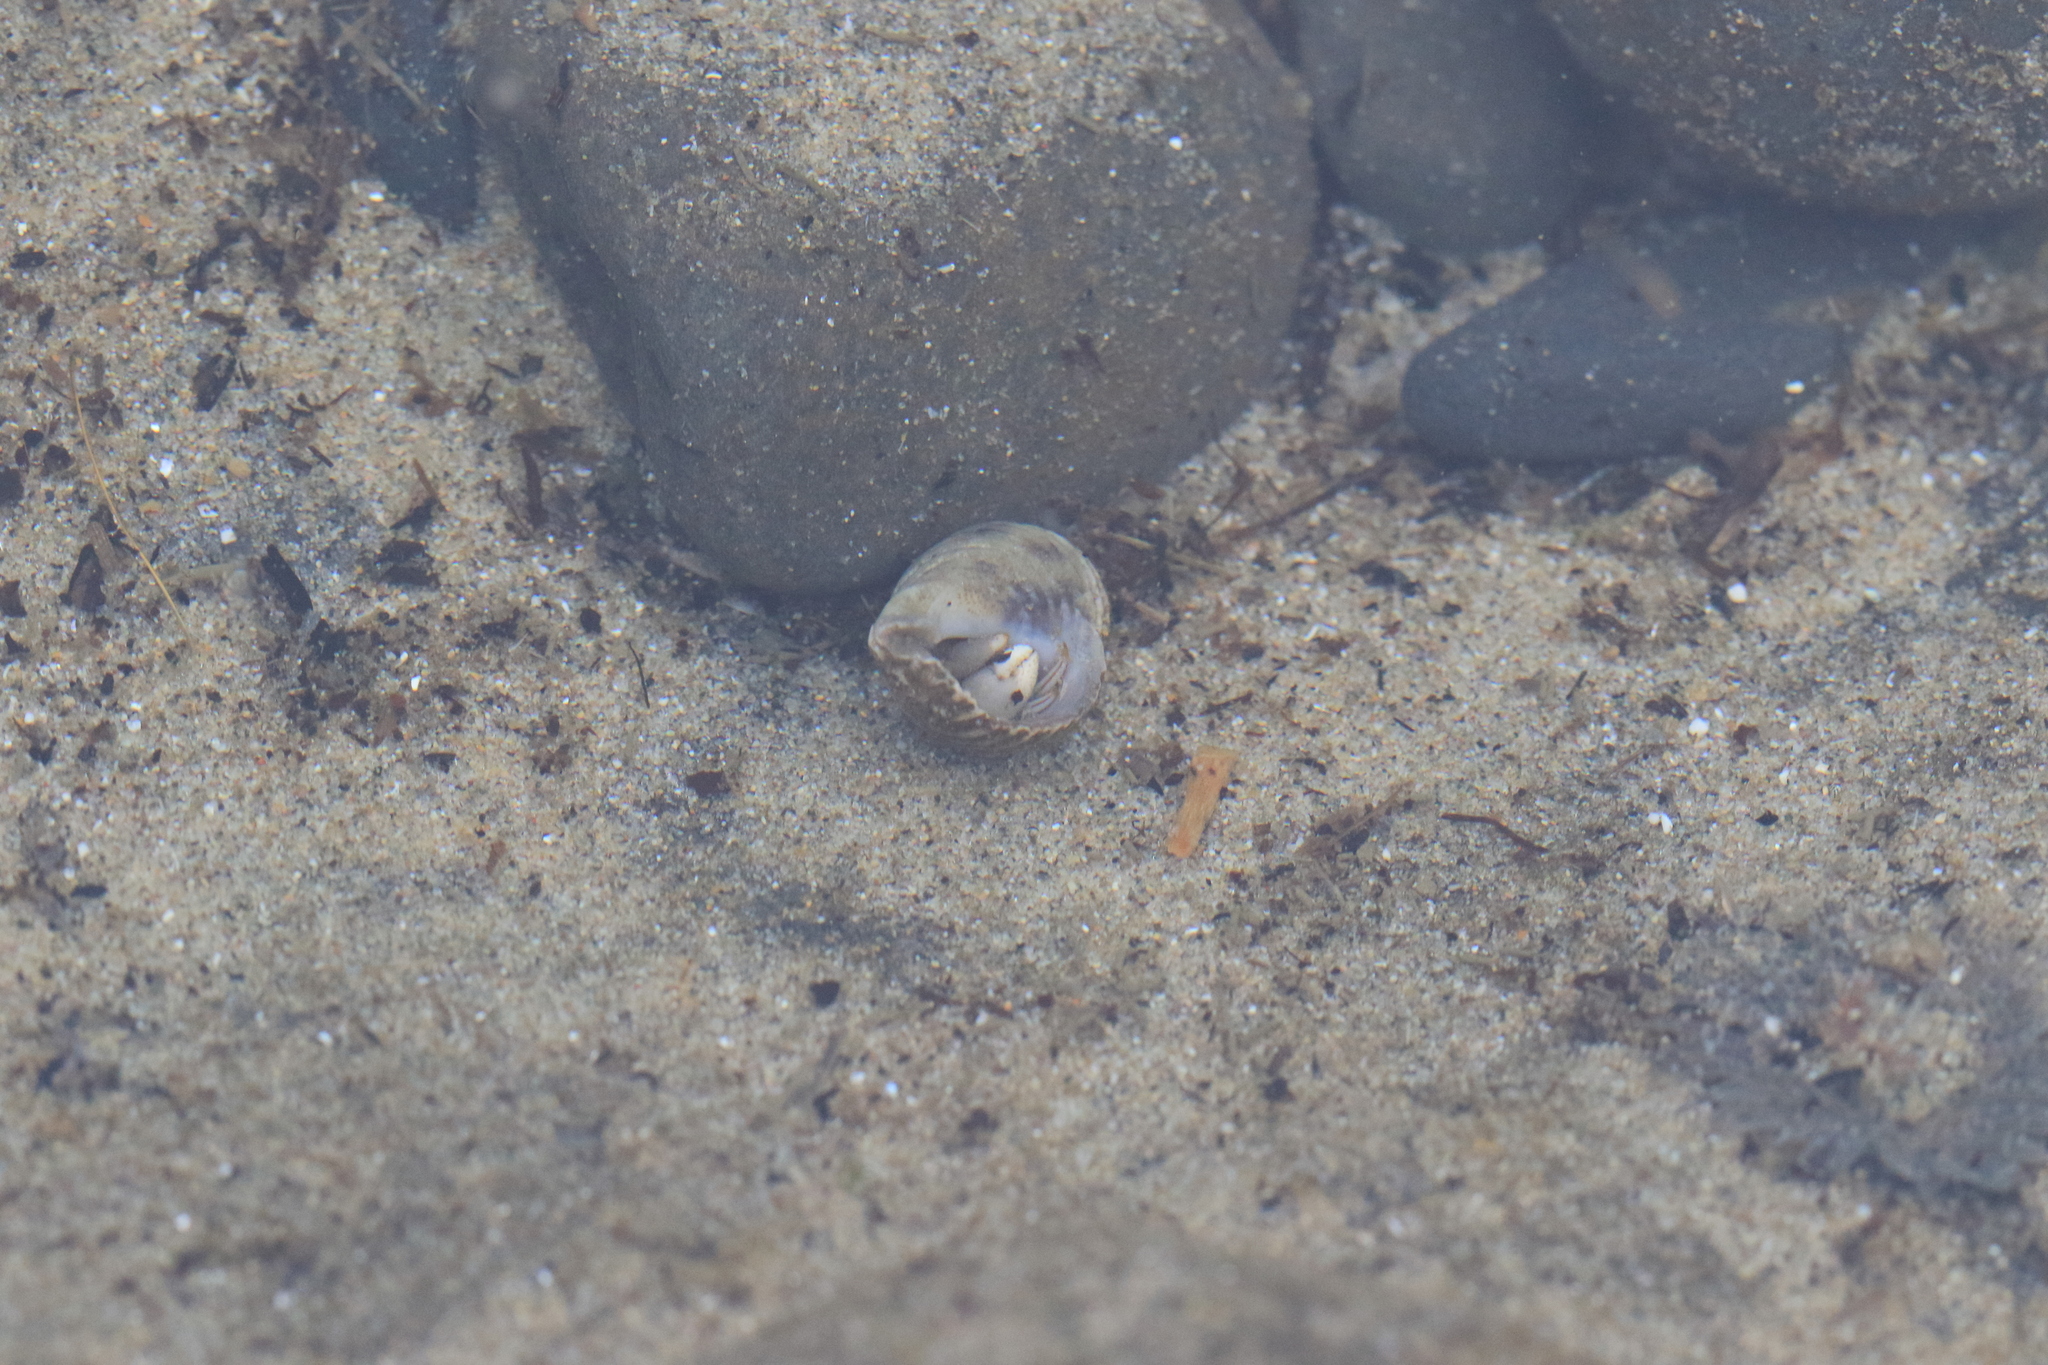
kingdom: Animalia
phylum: Arthropoda
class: Malacostraca
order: Decapoda
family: Paguridae
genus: Pagurus
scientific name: Pagurus hirsutiusculus
